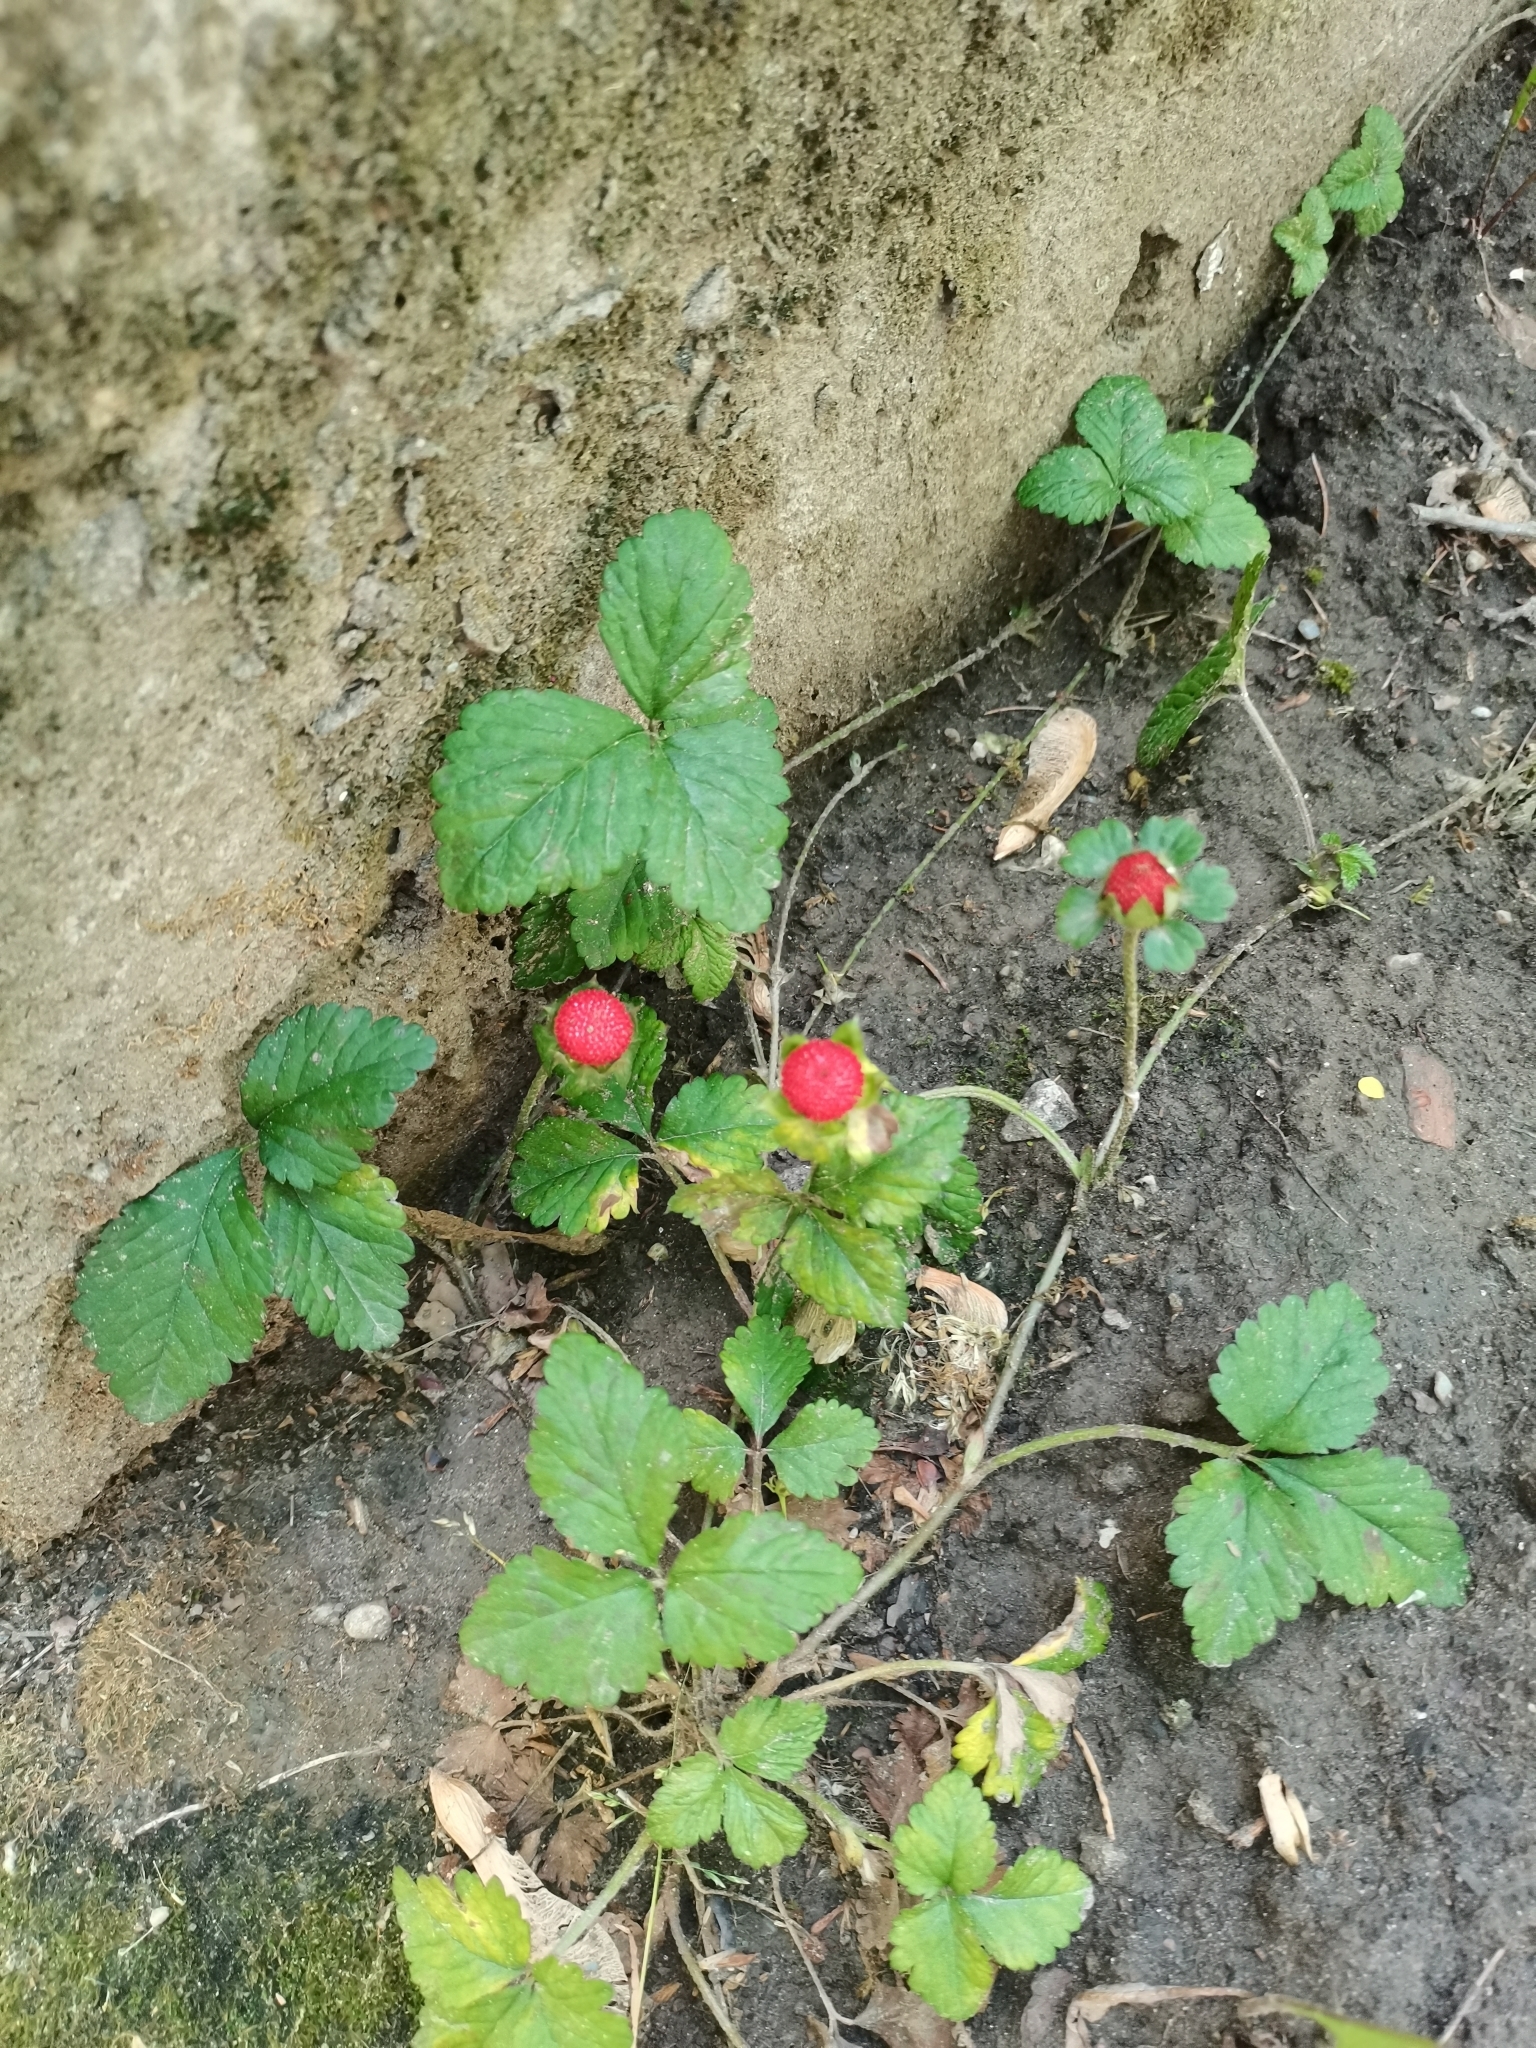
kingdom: Plantae
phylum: Tracheophyta
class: Magnoliopsida
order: Rosales
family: Rosaceae
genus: Potentilla
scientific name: Potentilla indica
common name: Yellow-flowered strawberry
